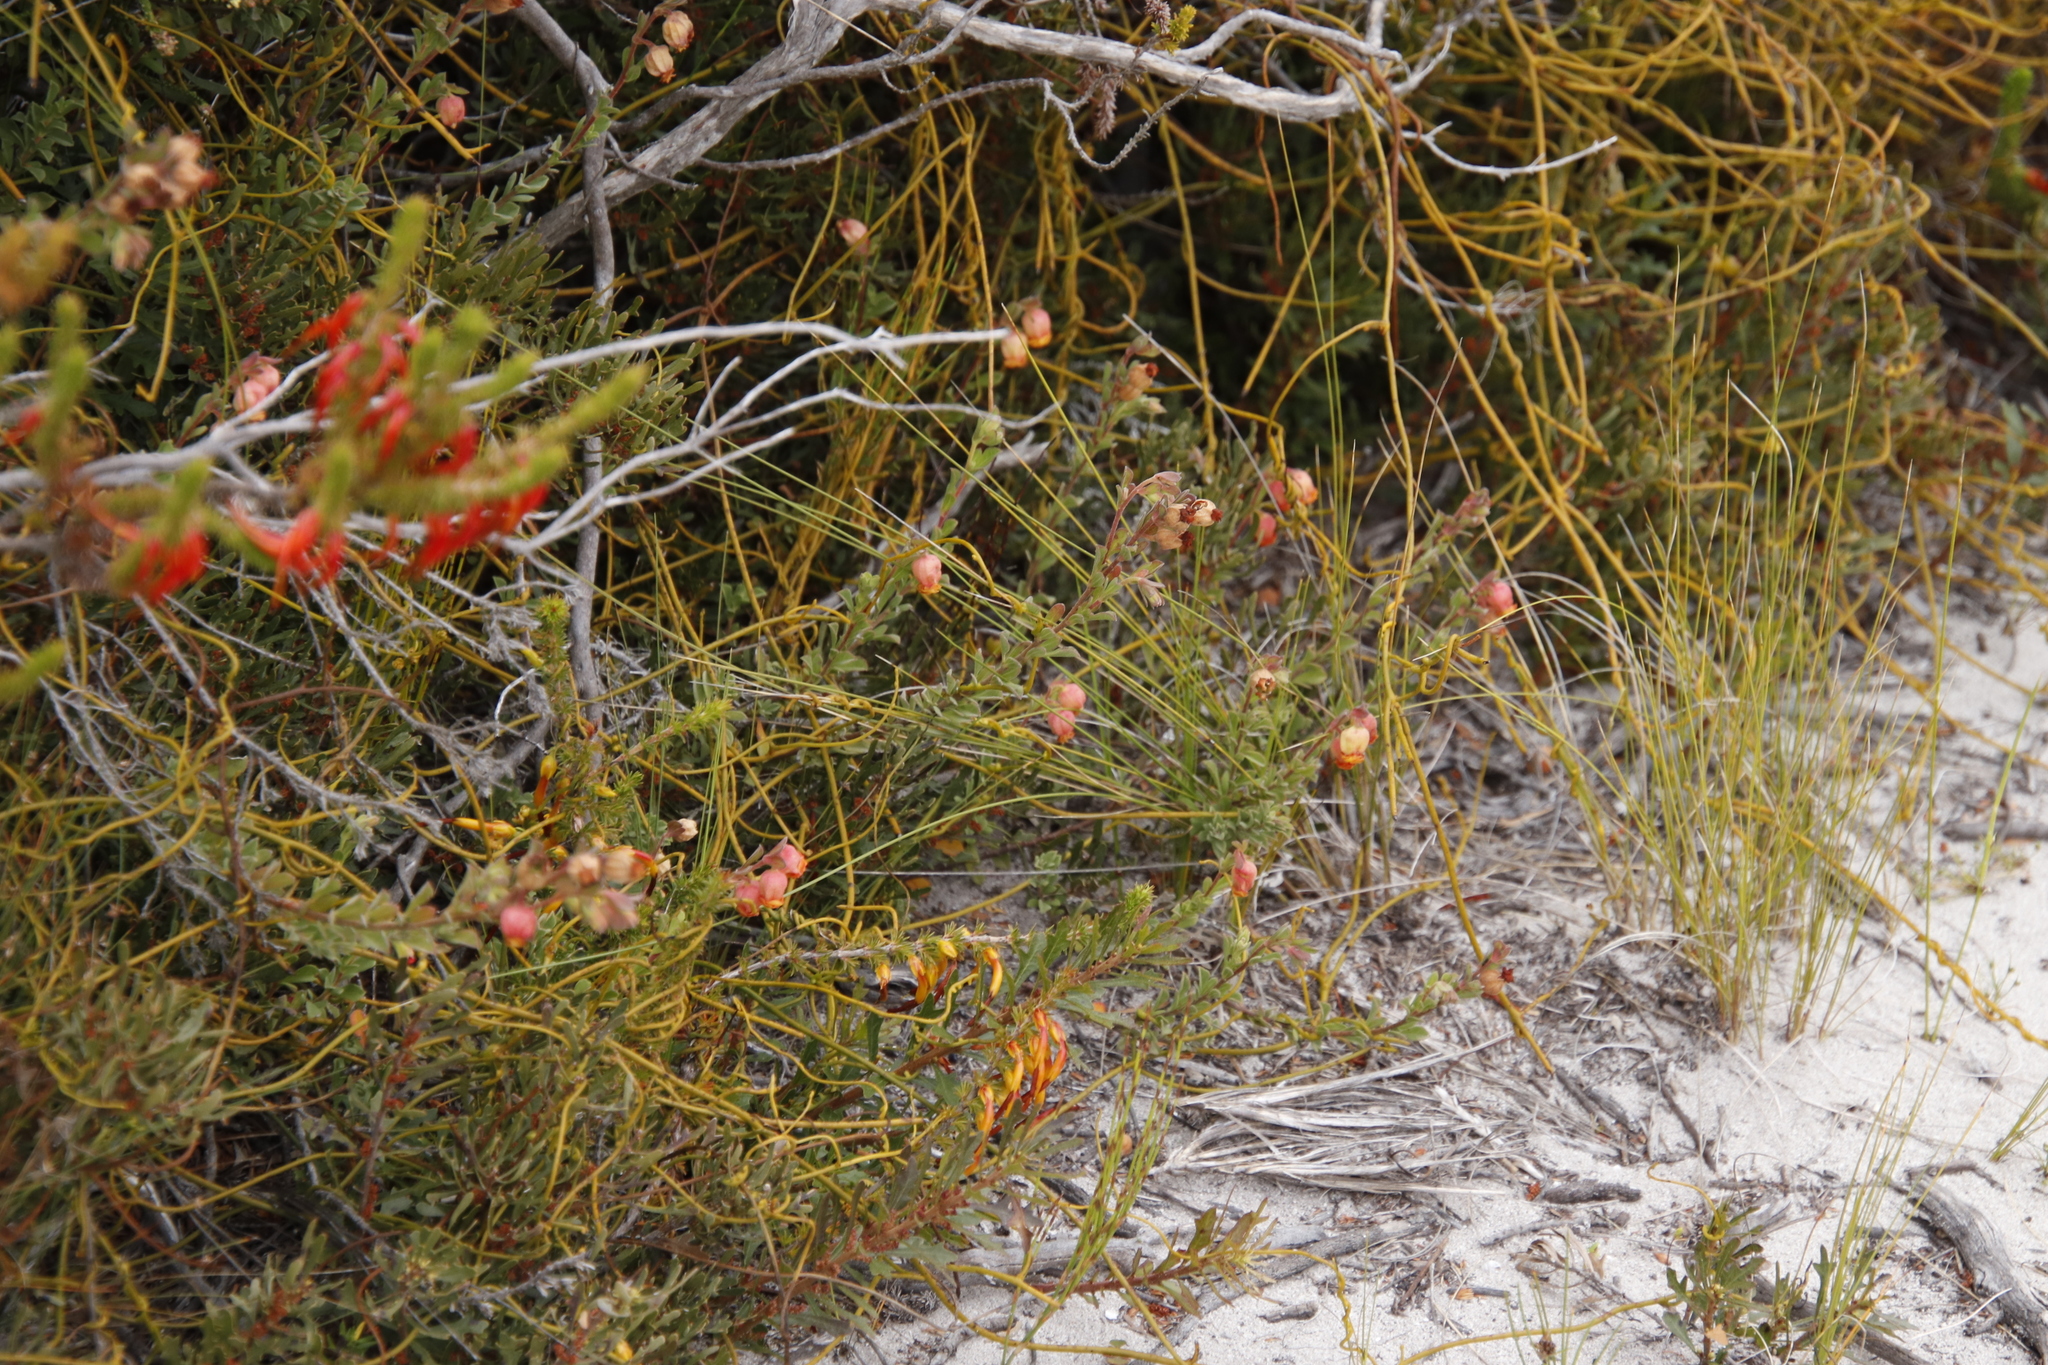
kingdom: Plantae
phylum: Tracheophyta
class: Magnoliopsida
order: Fagales
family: Myricaceae
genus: Morella
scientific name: Morella quercifolia
